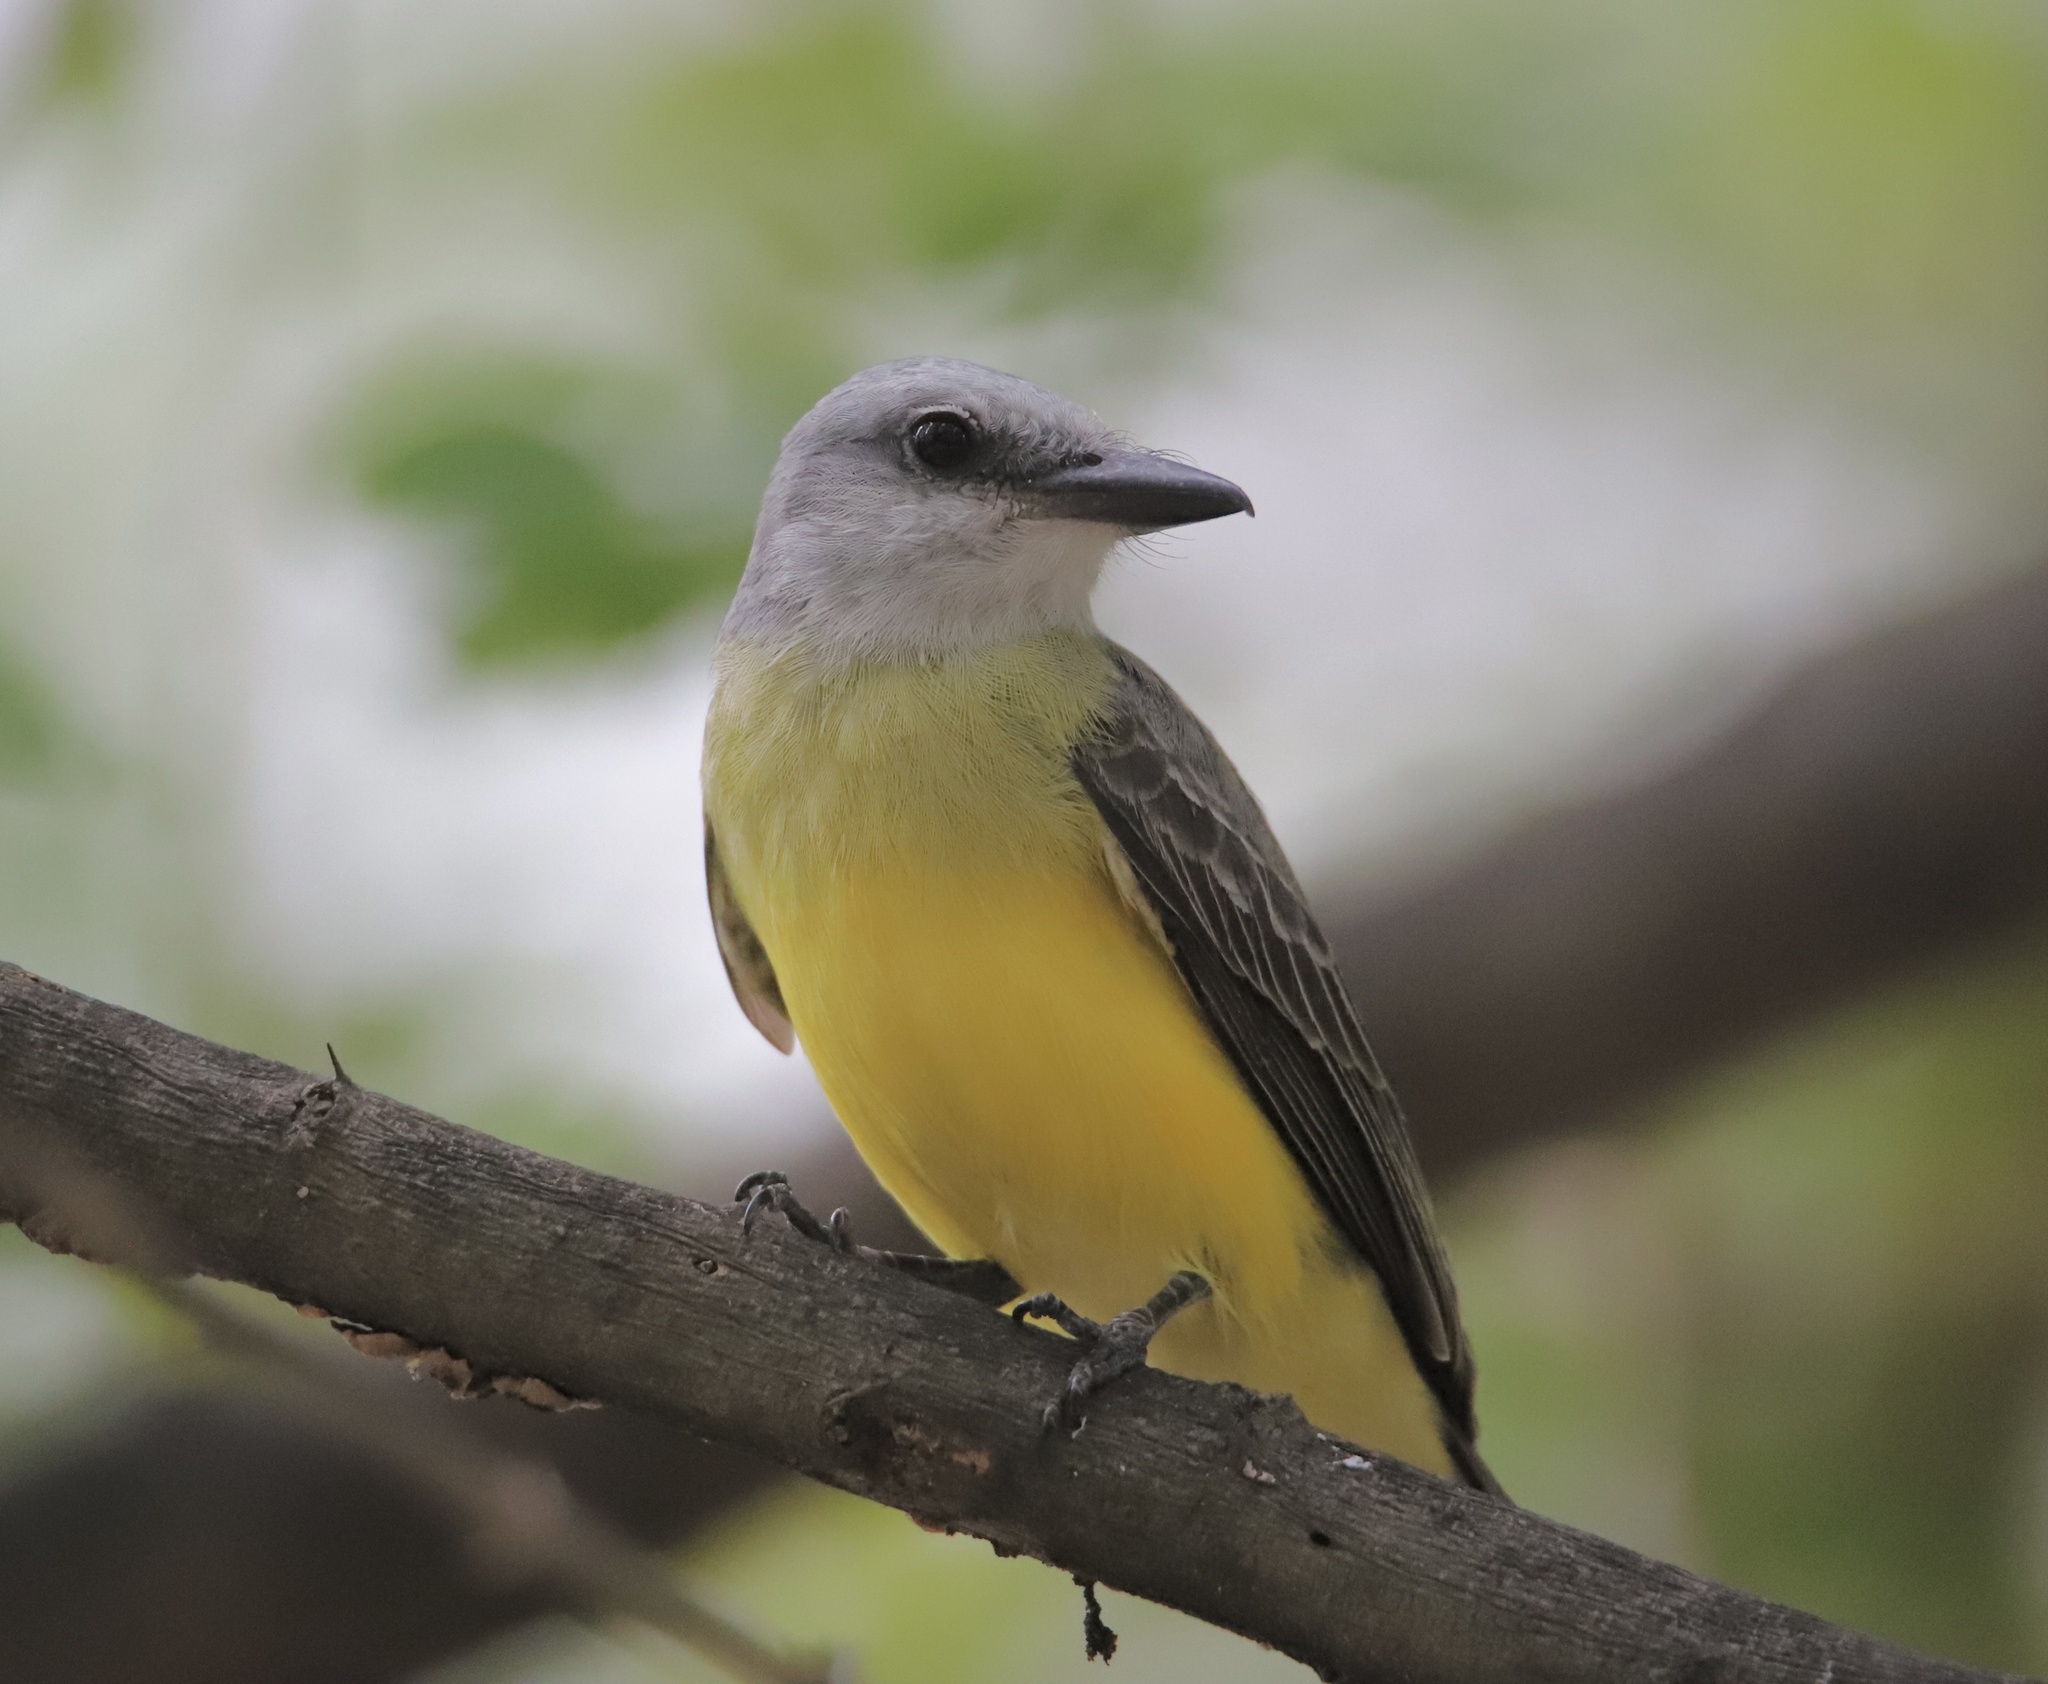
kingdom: Animalia
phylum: Chordata
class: Aves
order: Passeriformes
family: Tyrannidae
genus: Tyrannus
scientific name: Tyrannus melancholicus
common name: Tropical kingbird
